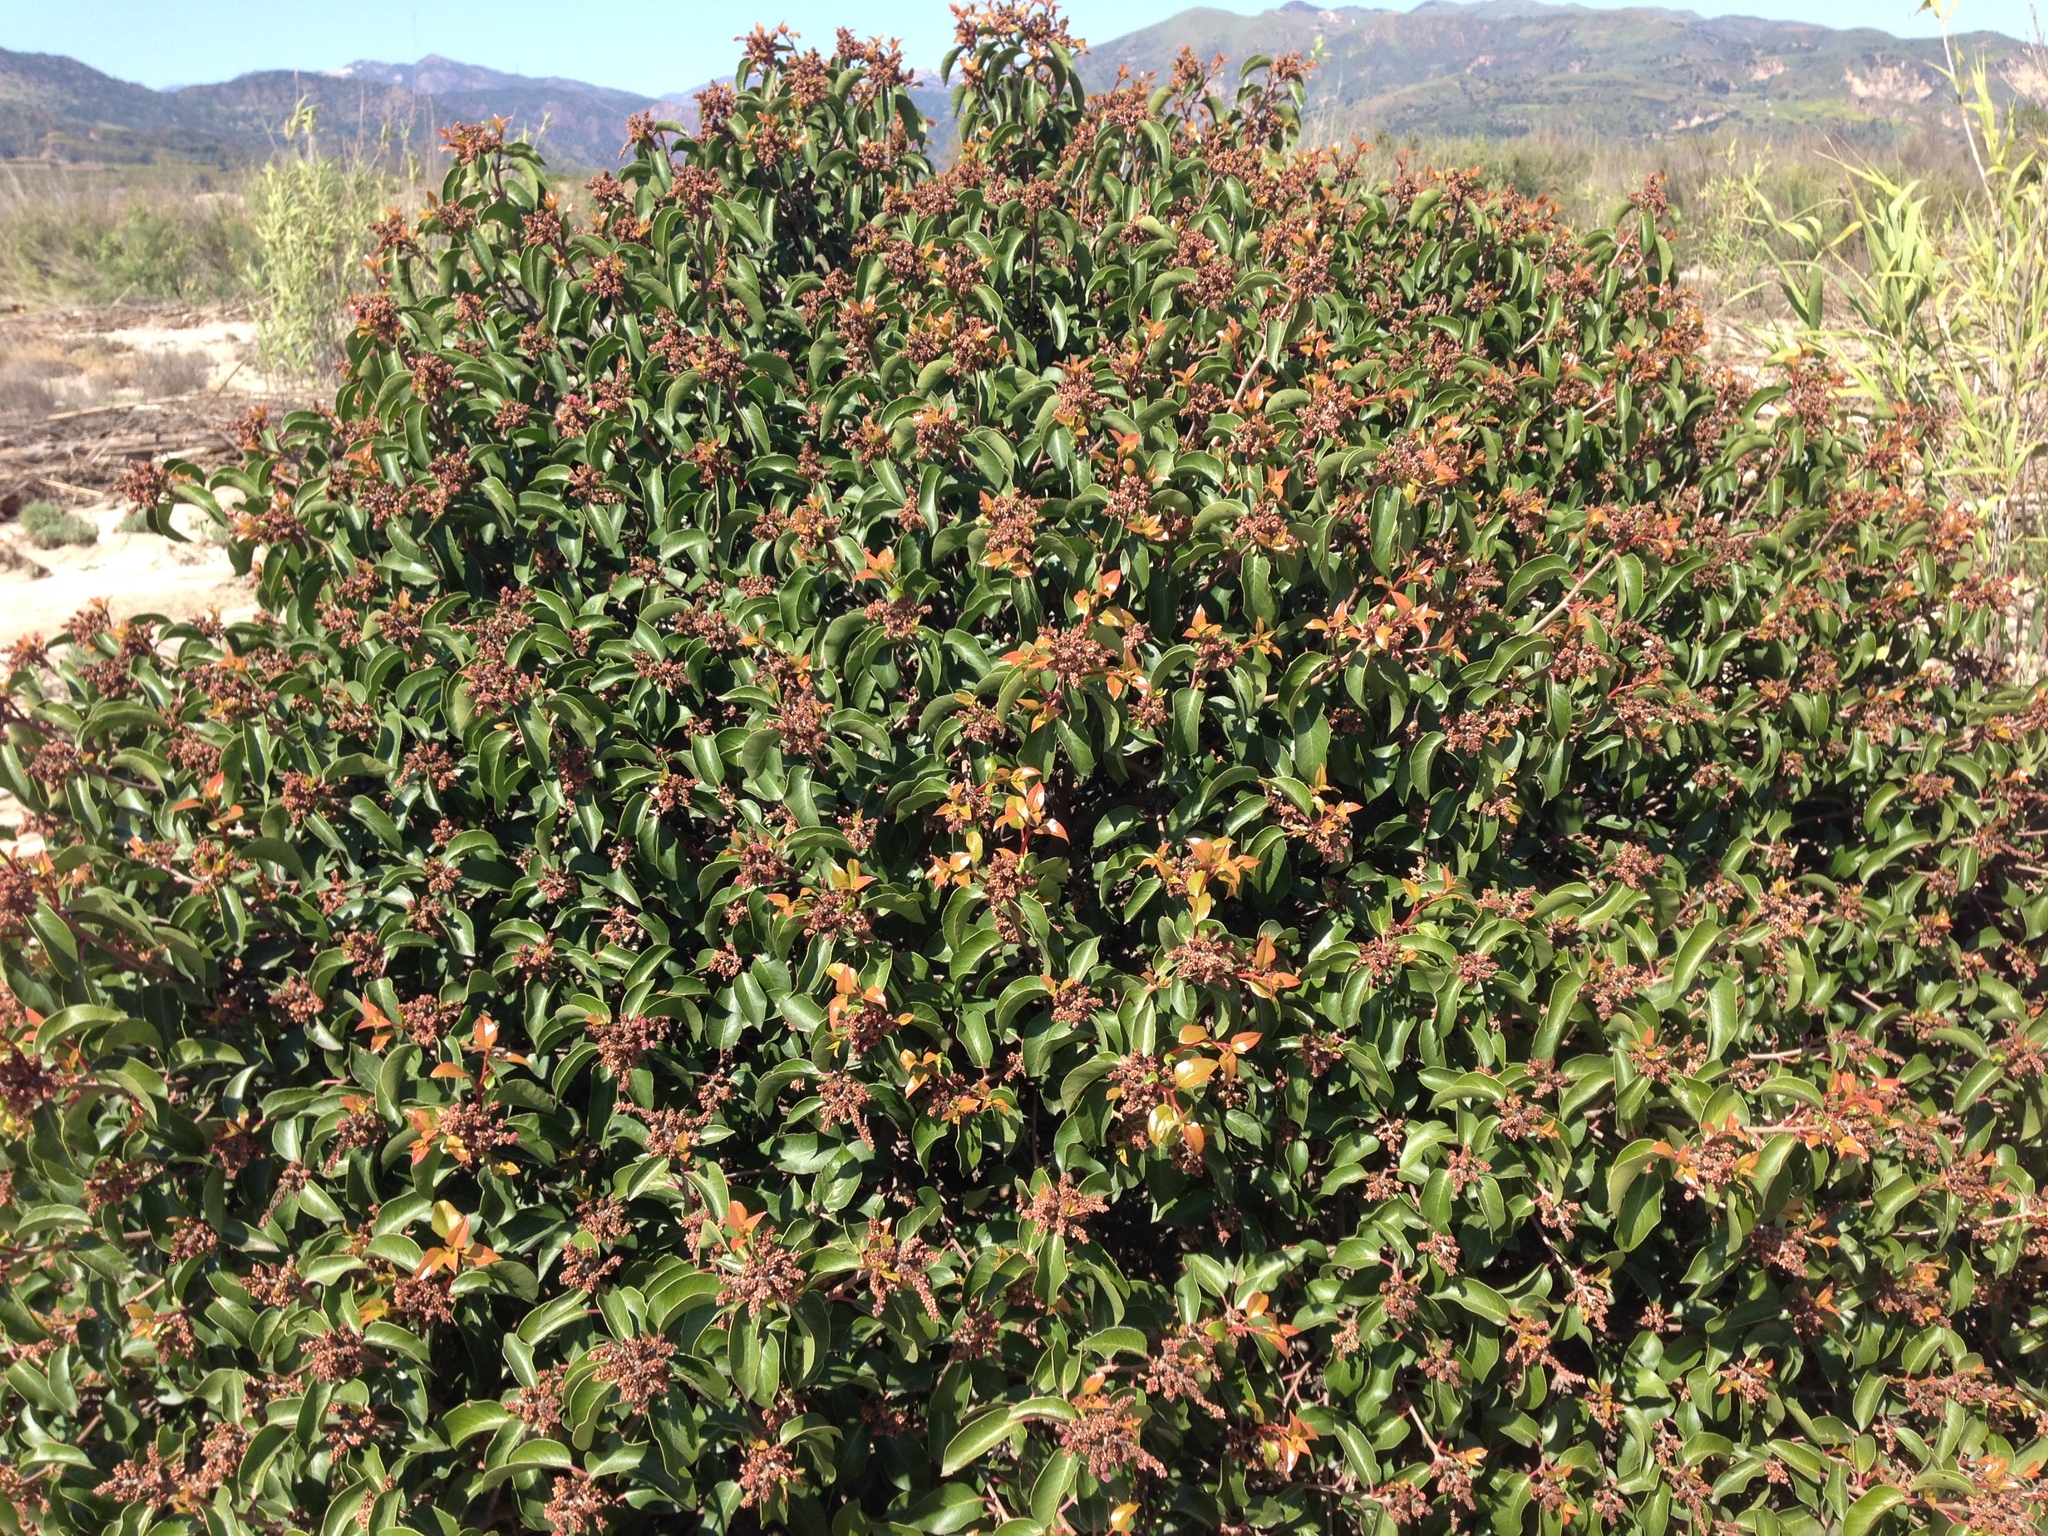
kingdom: Plantae
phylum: Tracheophyta
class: Magnoliopsida
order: Sapindales
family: Anacardiaceae
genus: Rhus
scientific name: Rhus ovata
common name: Sugar sumac
